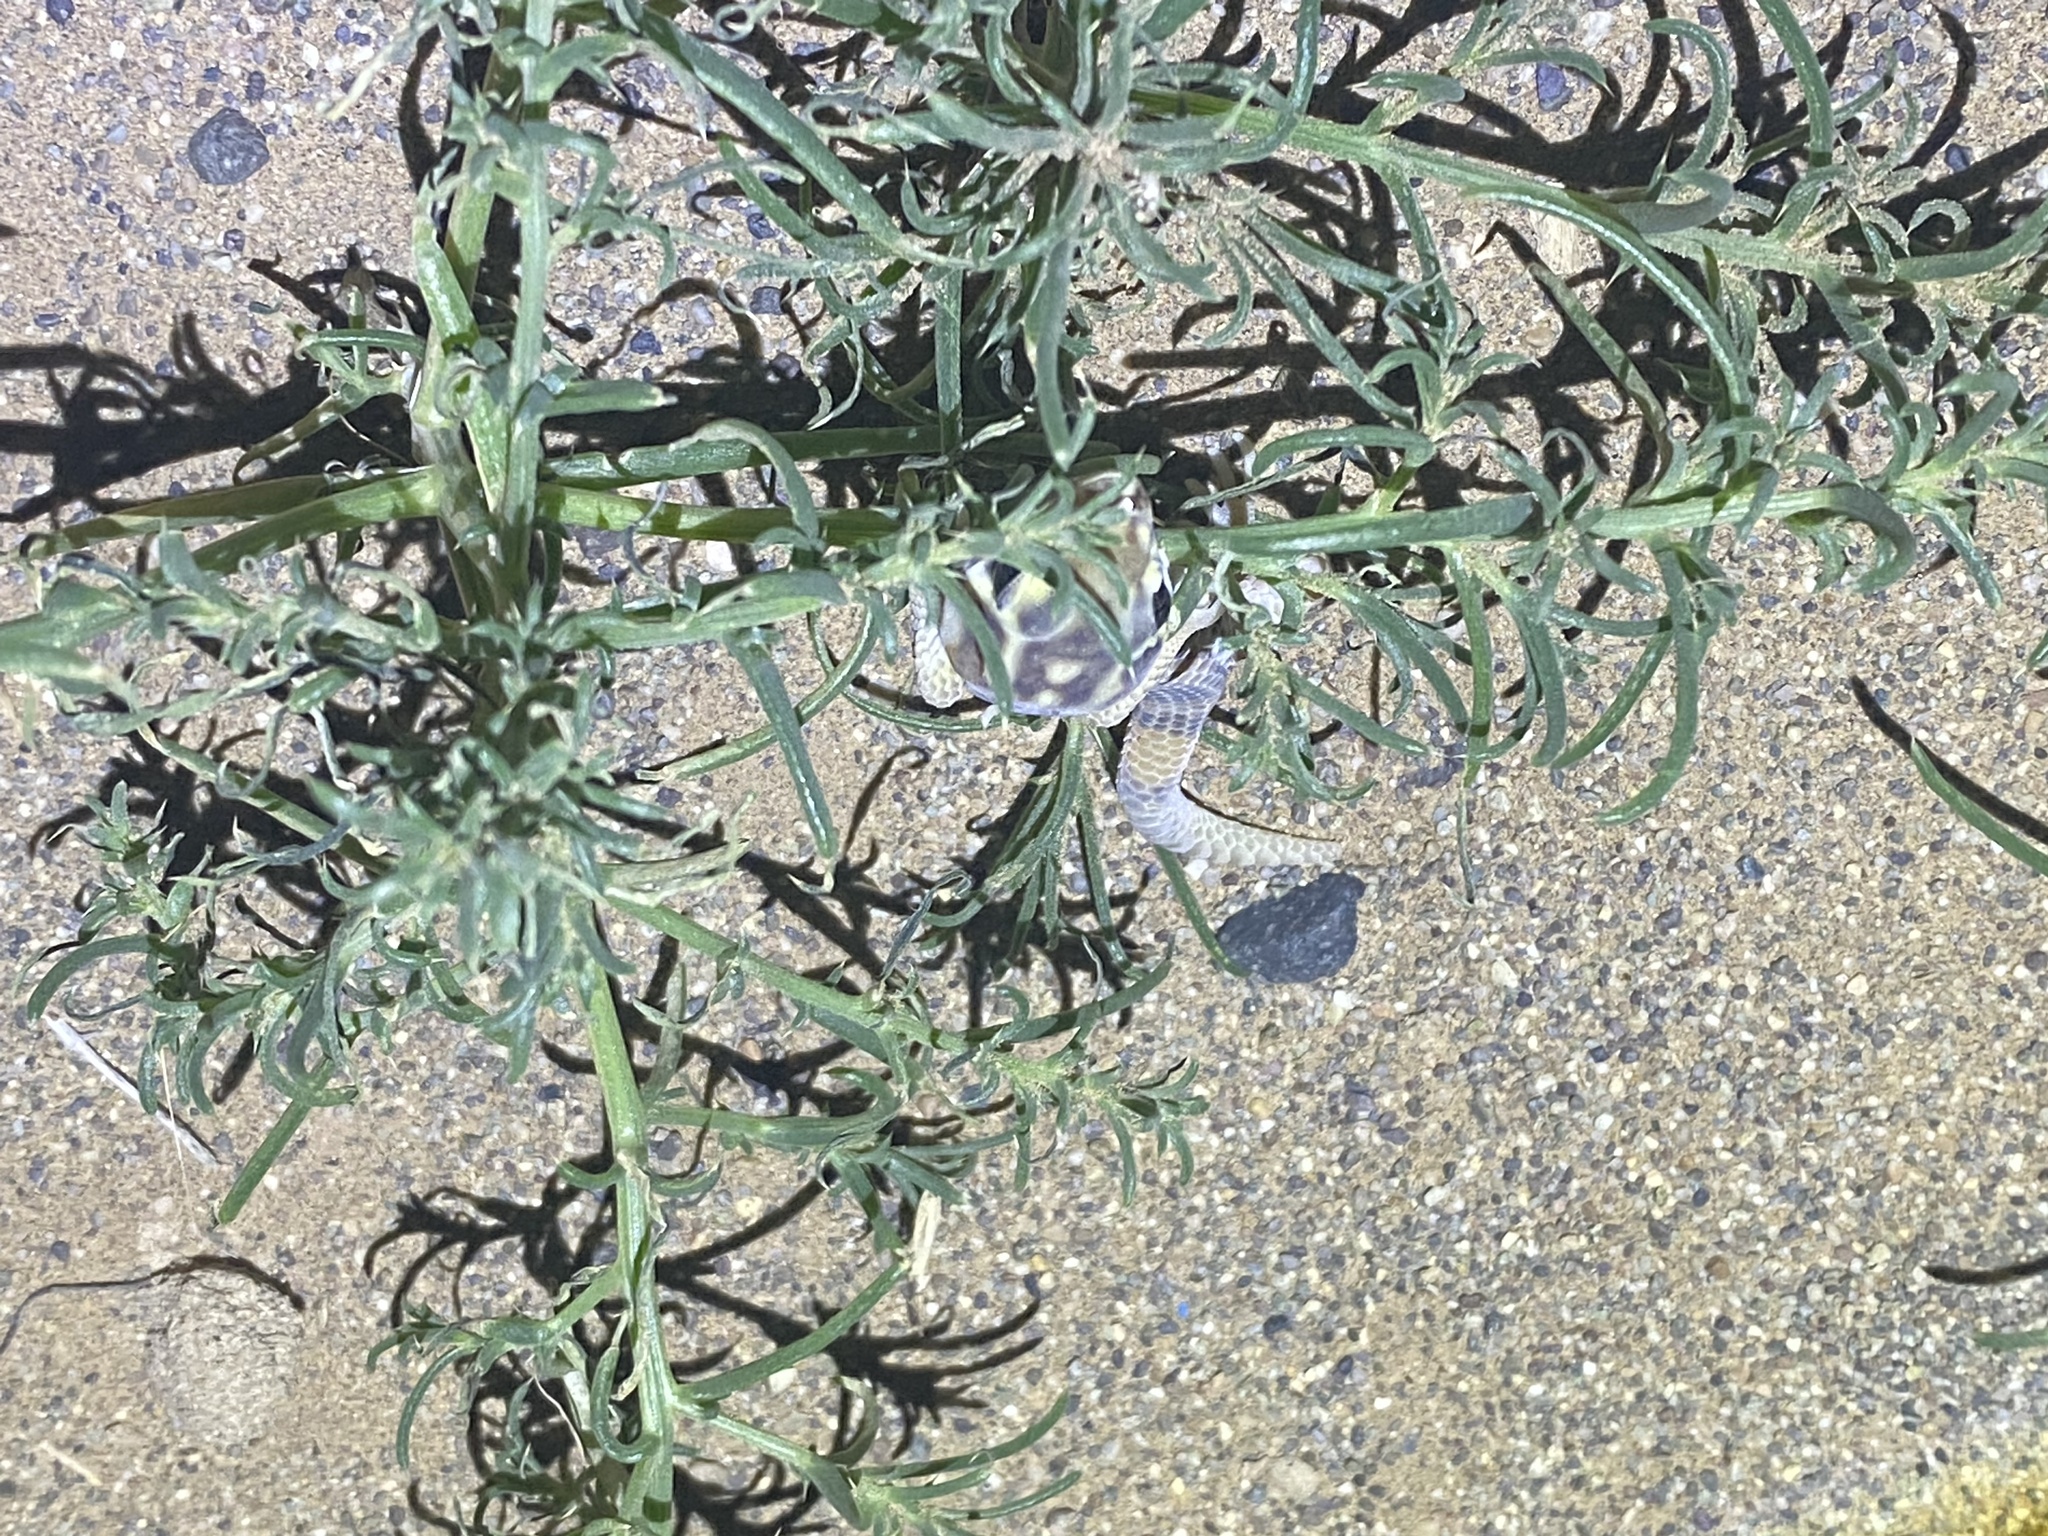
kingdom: Animalia
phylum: Chordata
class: Squamata
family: Sphaerodactylidae
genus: Teratoscincus
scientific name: Teratoscincus keyserlingii
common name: Frog-eyed gecko
